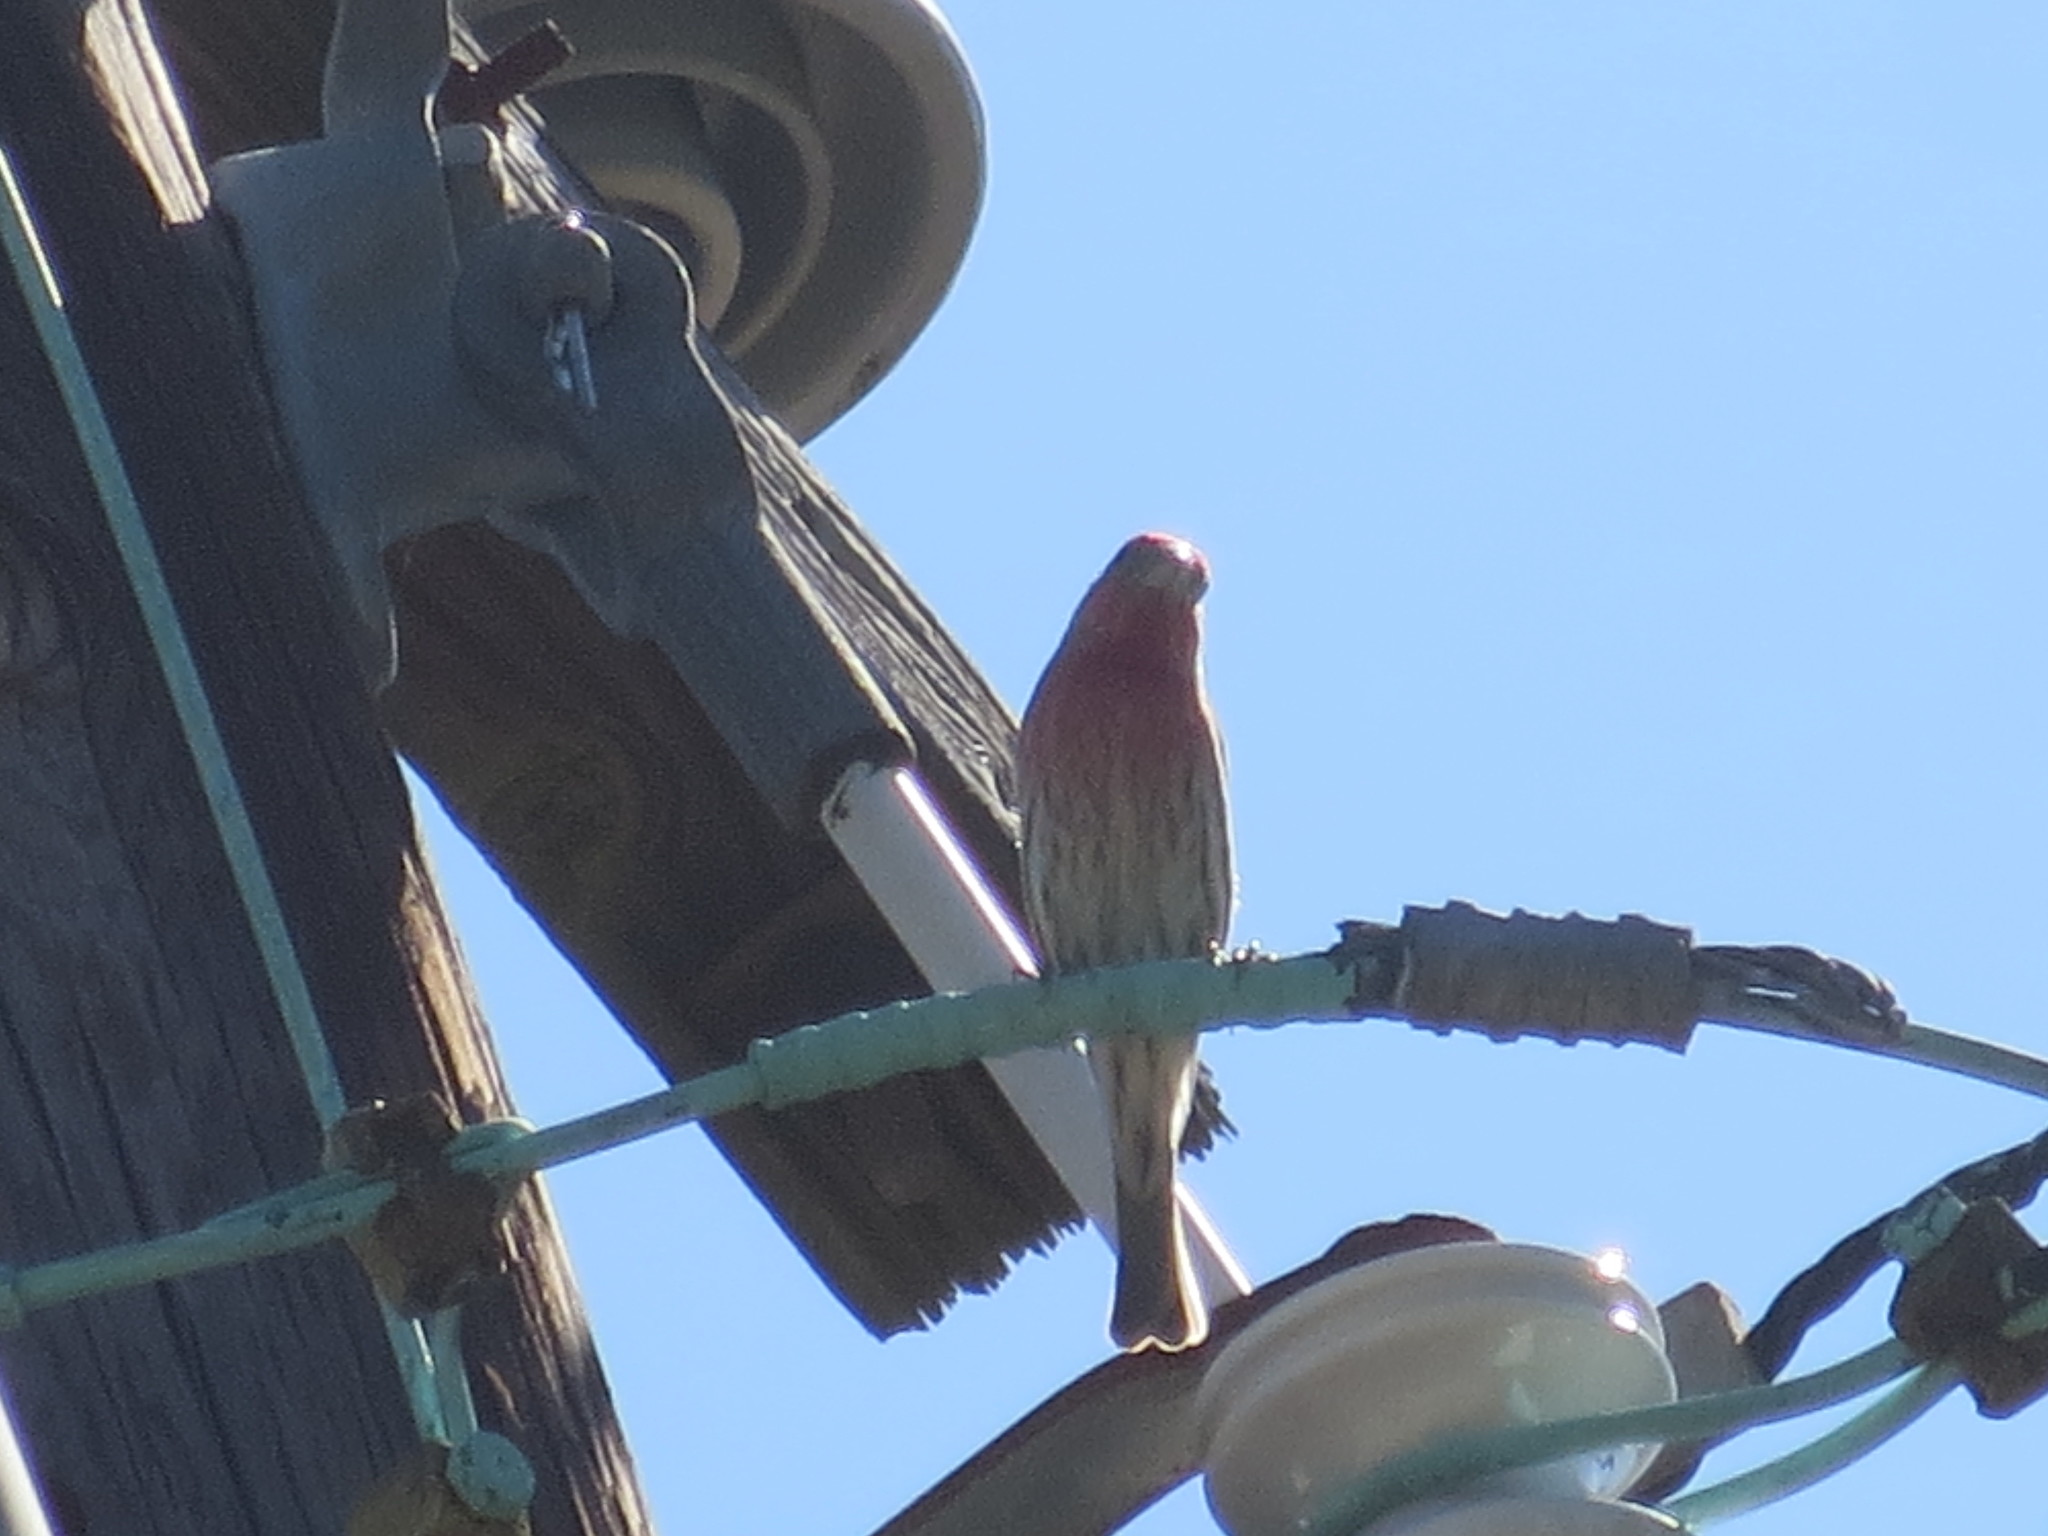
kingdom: Animalia
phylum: Chordata
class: Aves
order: Passeriformes
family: Fringillidae
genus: Haemorhous
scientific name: Haemorhous mexicanus
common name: House finch
